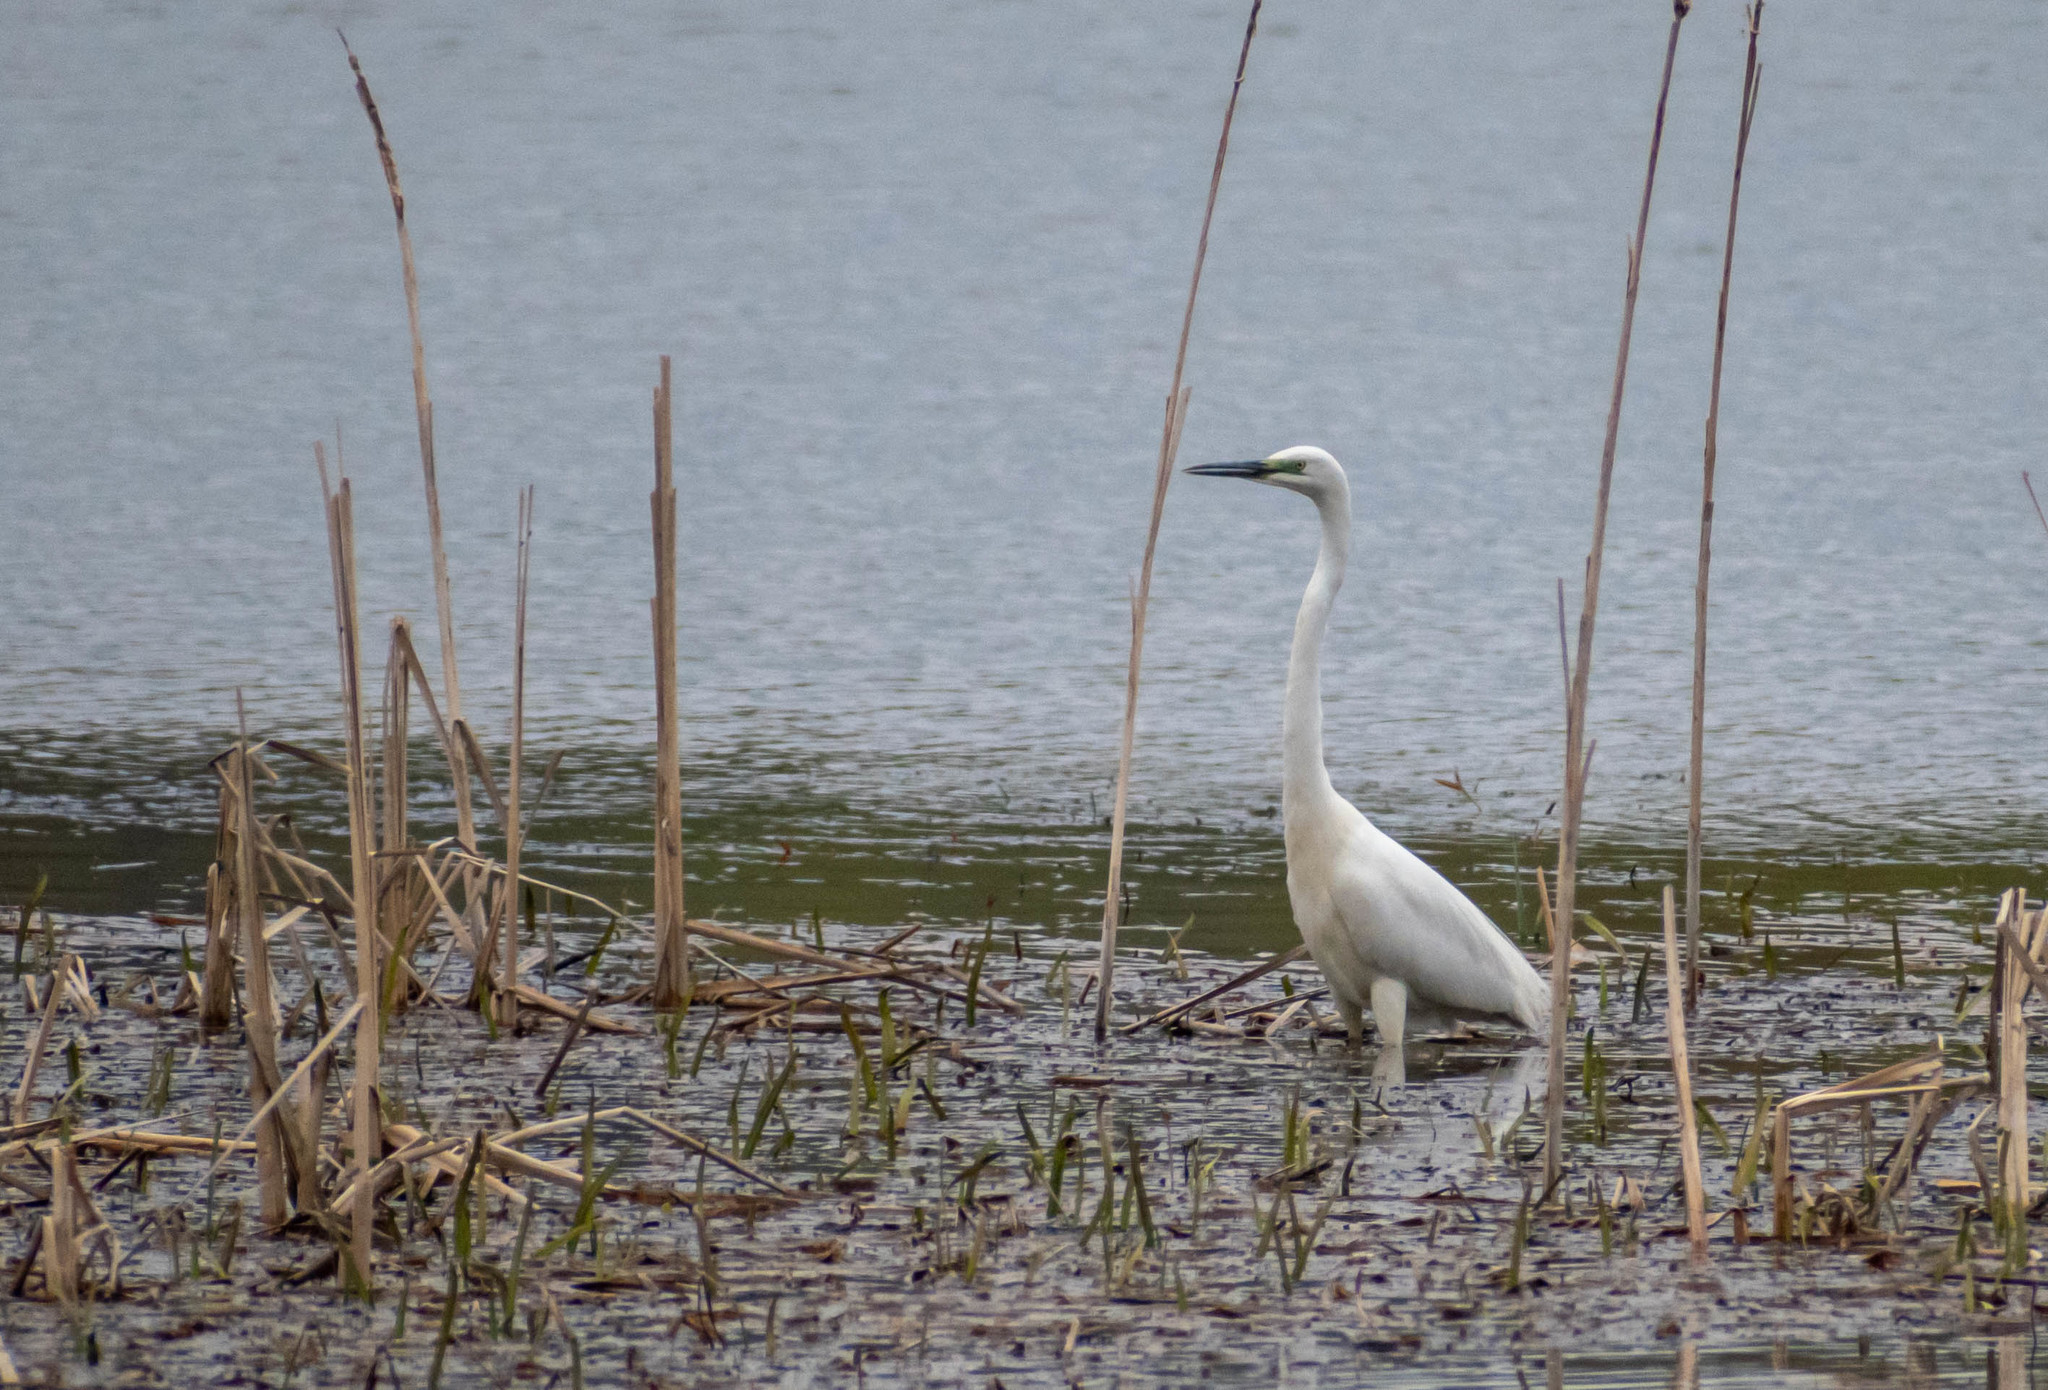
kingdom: Animalia
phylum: Chordata
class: Aves
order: Pelecaniformes
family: Ardeidae
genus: Ardea
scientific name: Ardea alba
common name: Great egret
